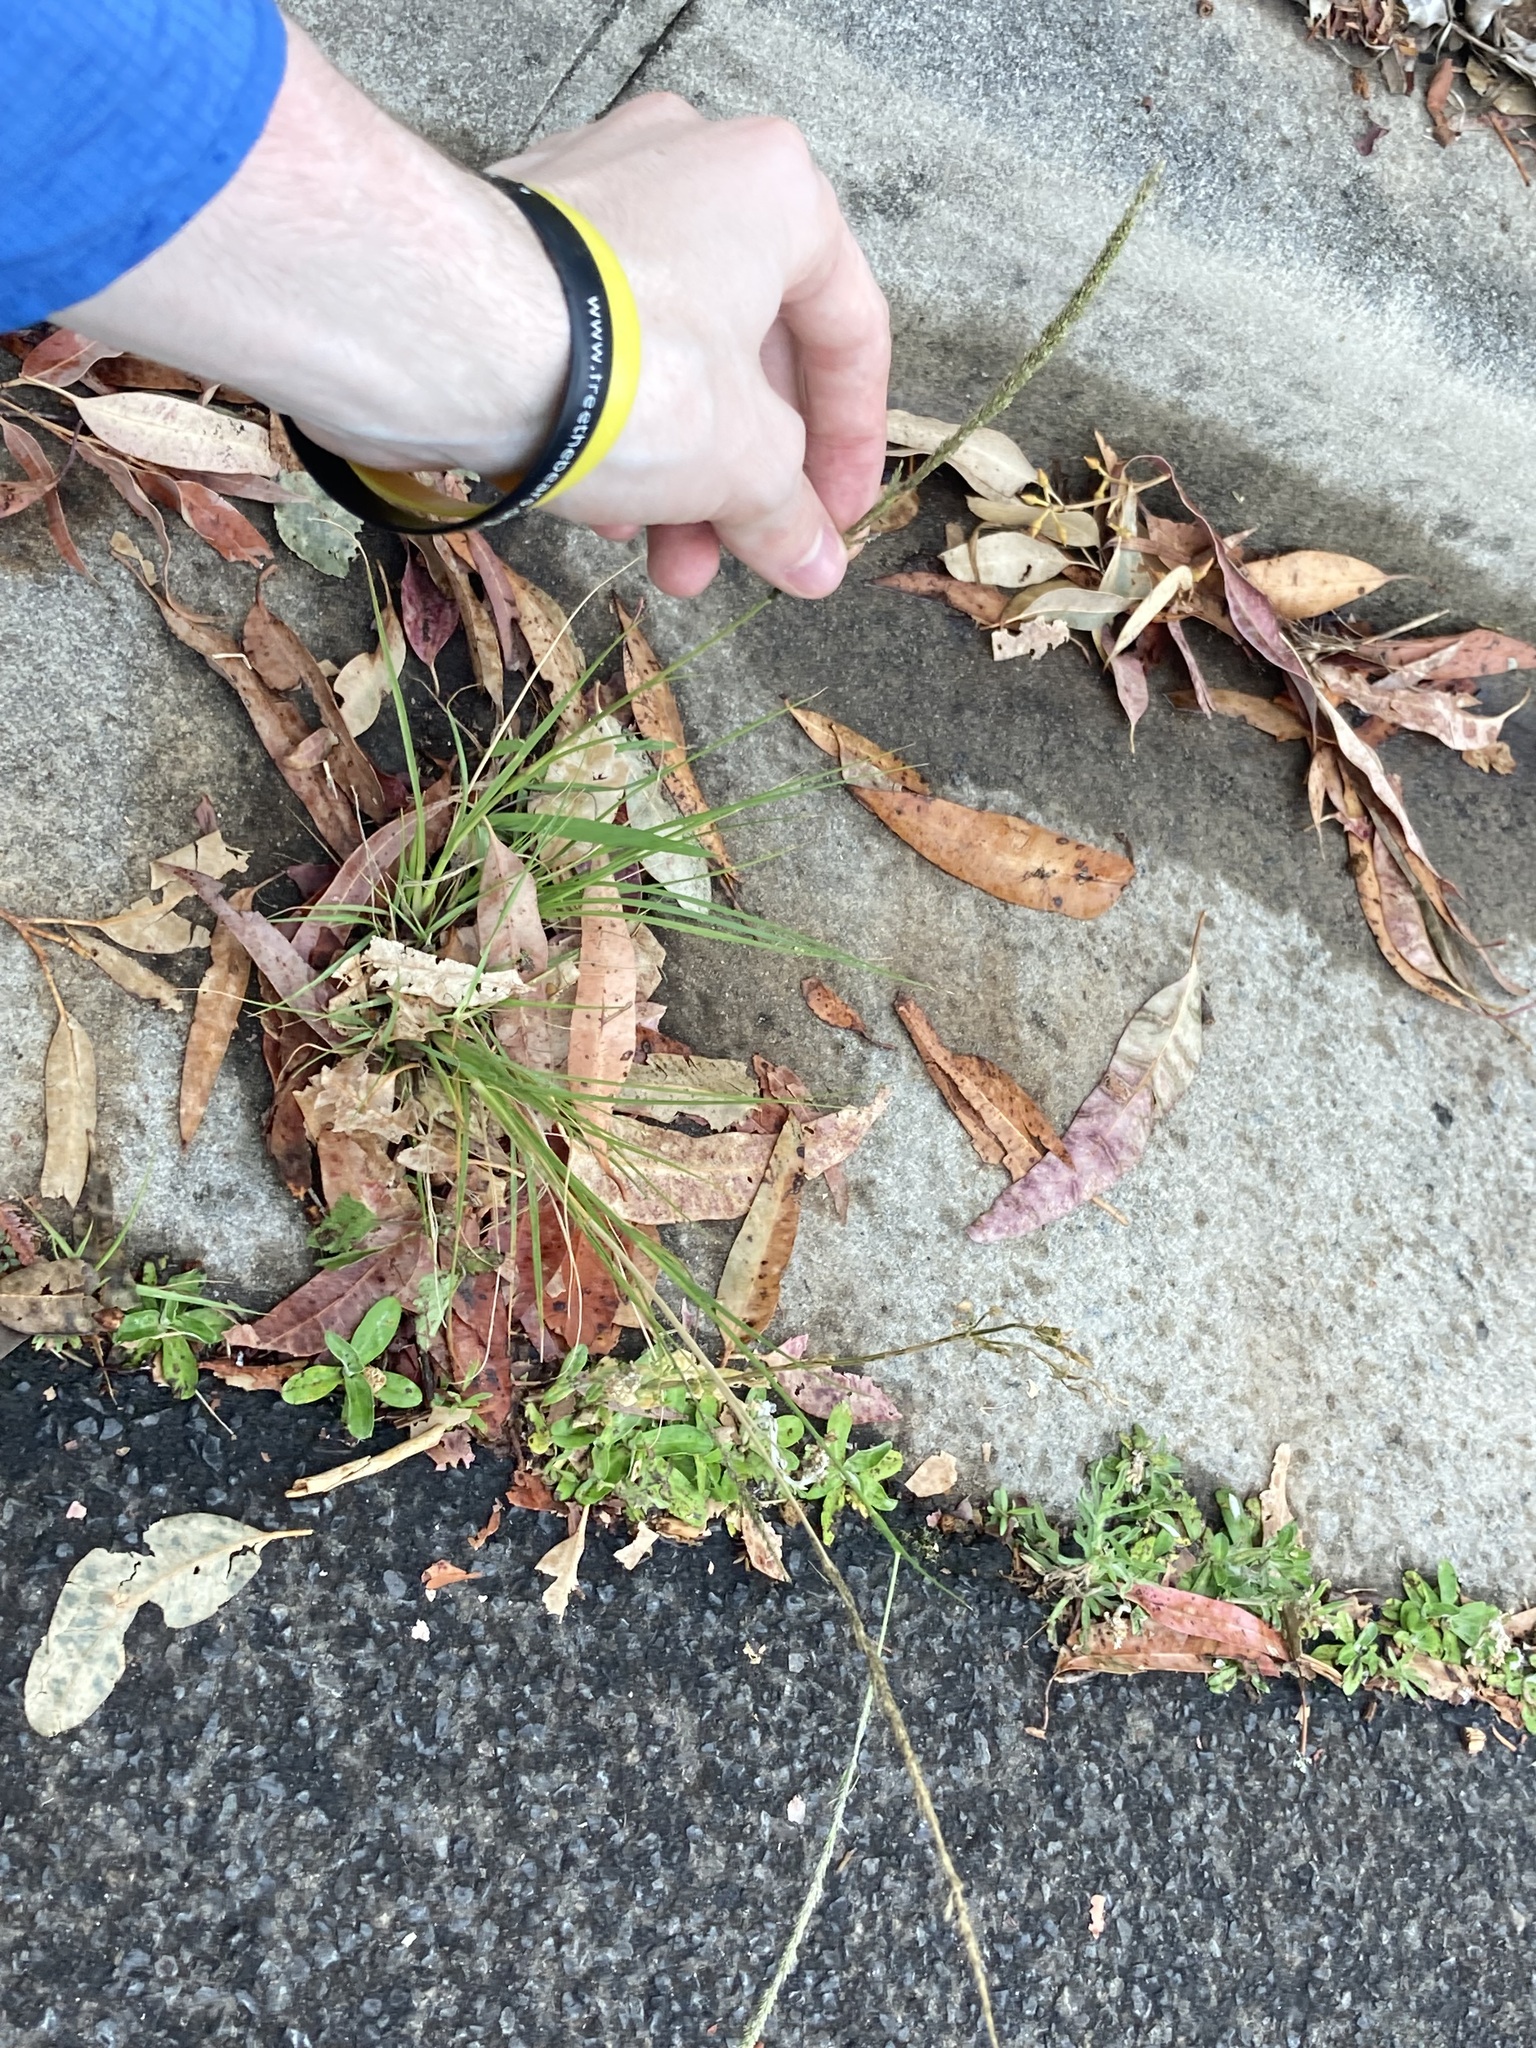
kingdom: Plantae
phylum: Tracheophyta
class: Liliopsida
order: Poales
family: Poaceae
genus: Sporobolus
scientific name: Sporobolus africanus
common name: African dropseed
